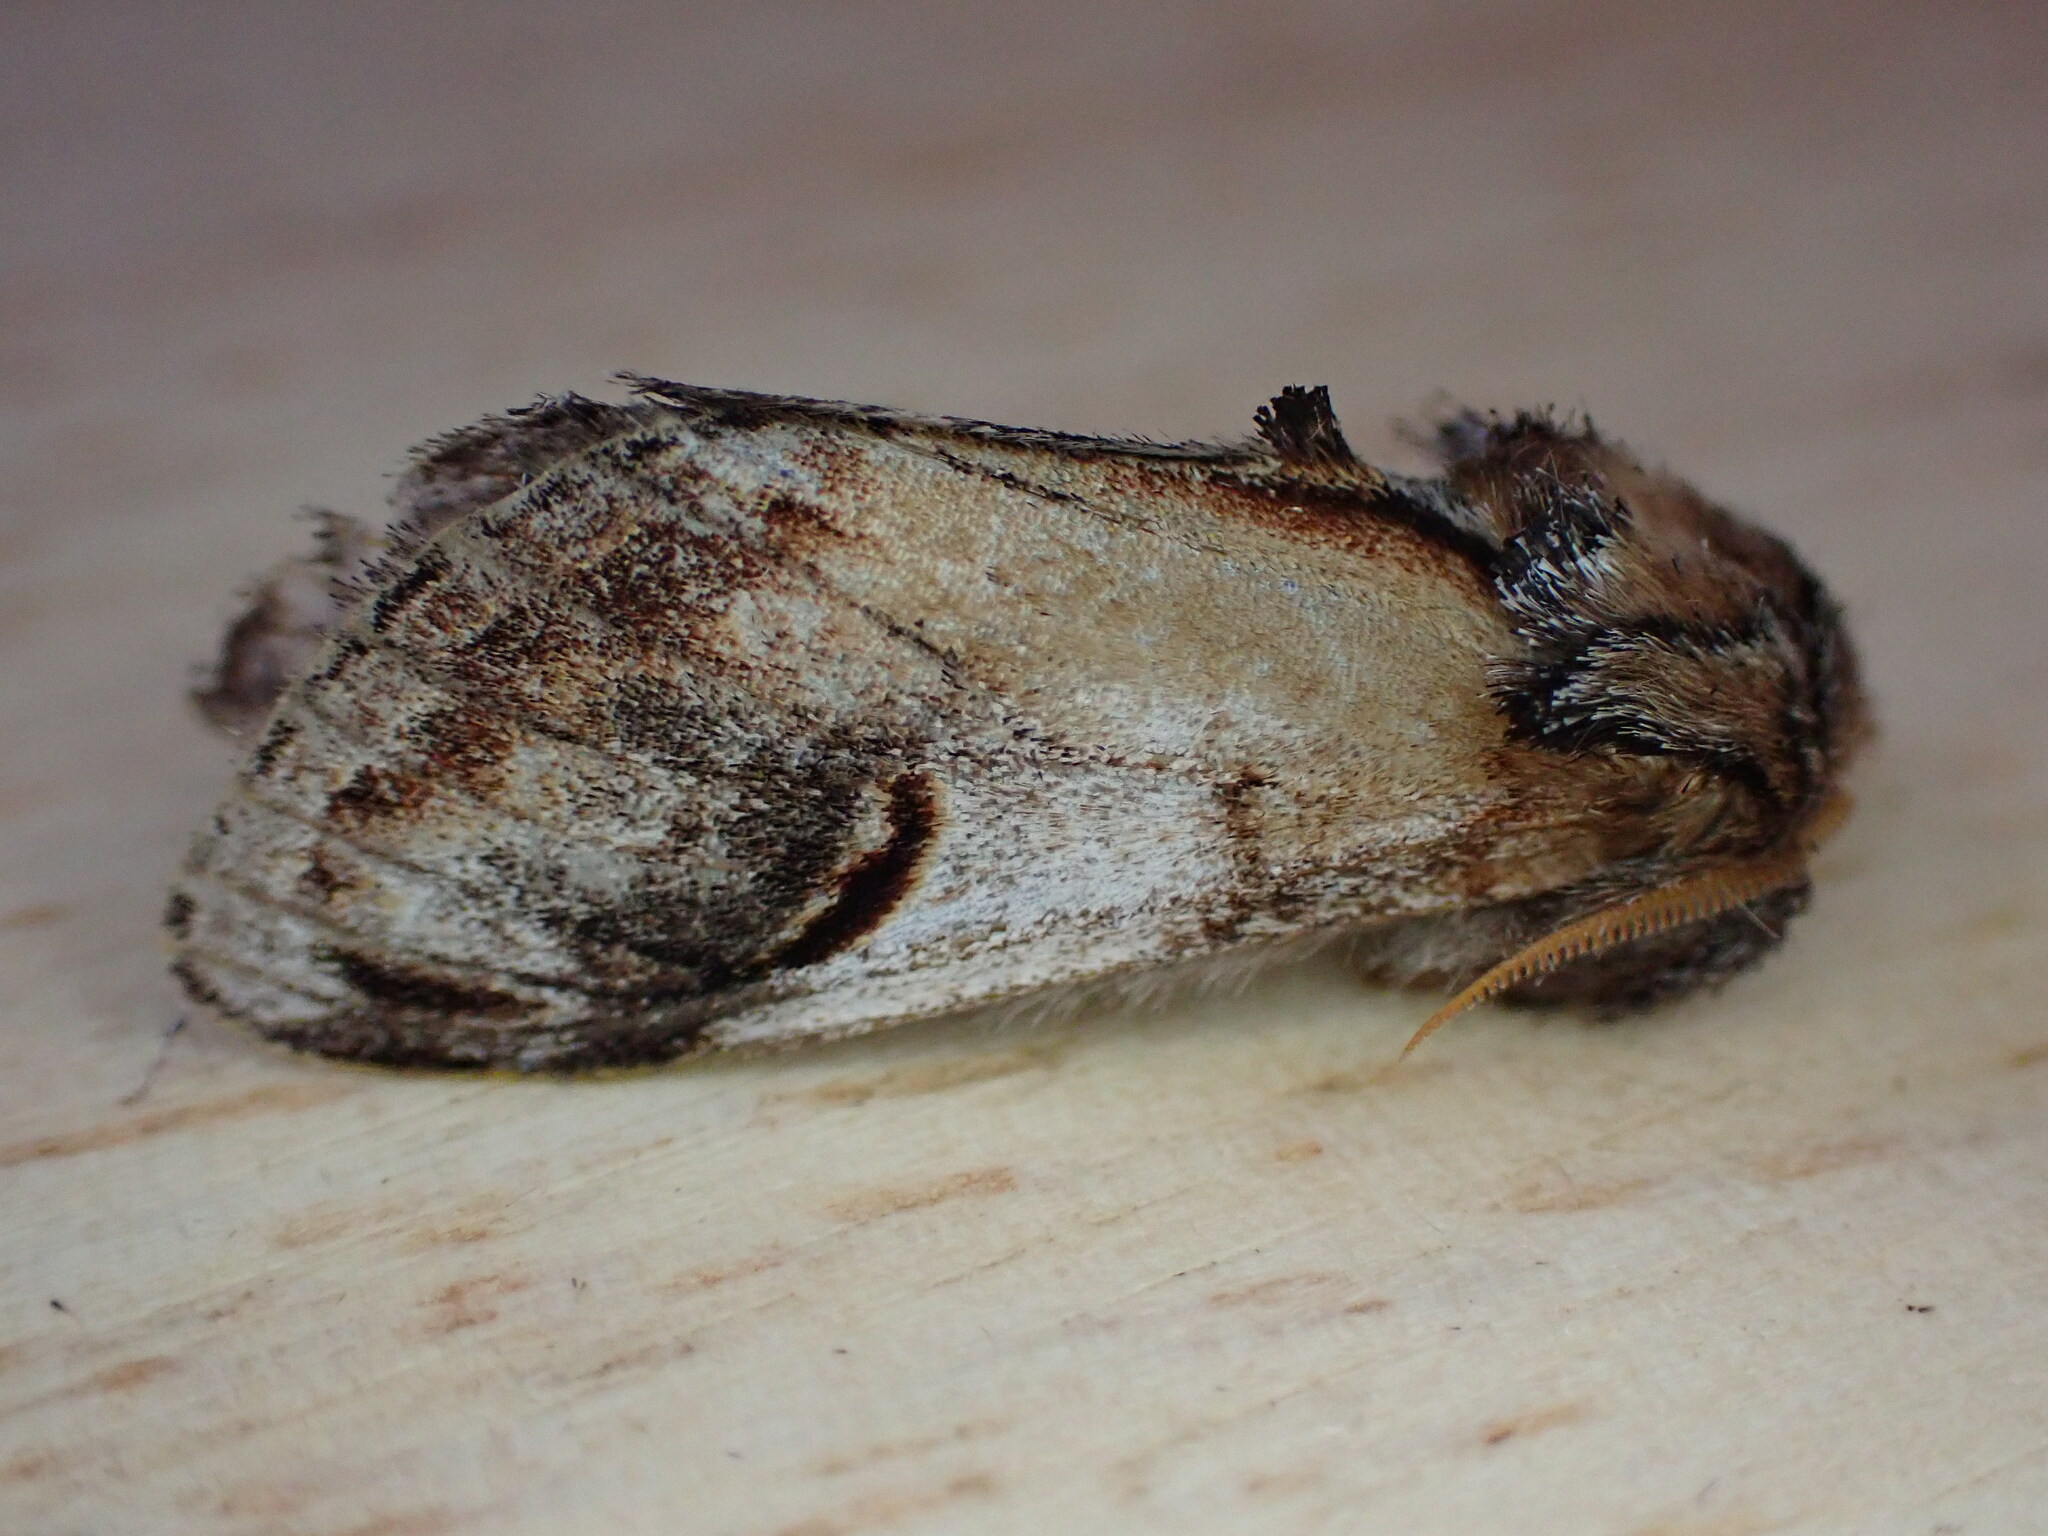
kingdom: Animalia
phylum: Arthropoda
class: Insecta
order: Lepidoptera
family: Notodontidae
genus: Notodonta
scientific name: Notodonta ziczac
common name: Pebble prominent
